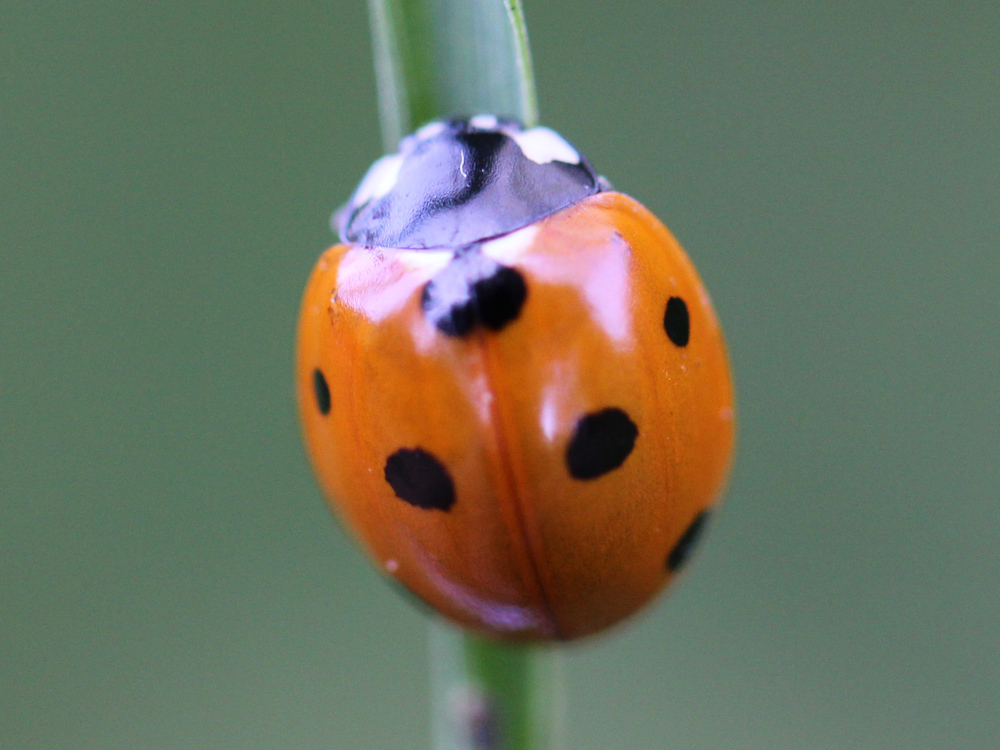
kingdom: Animalia
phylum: Arthropoda
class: Insecta
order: Coleoptera
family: Coccinellidae
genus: Coccinella
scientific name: Coccinella septempunctata
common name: Sevenspotted lady beetle
